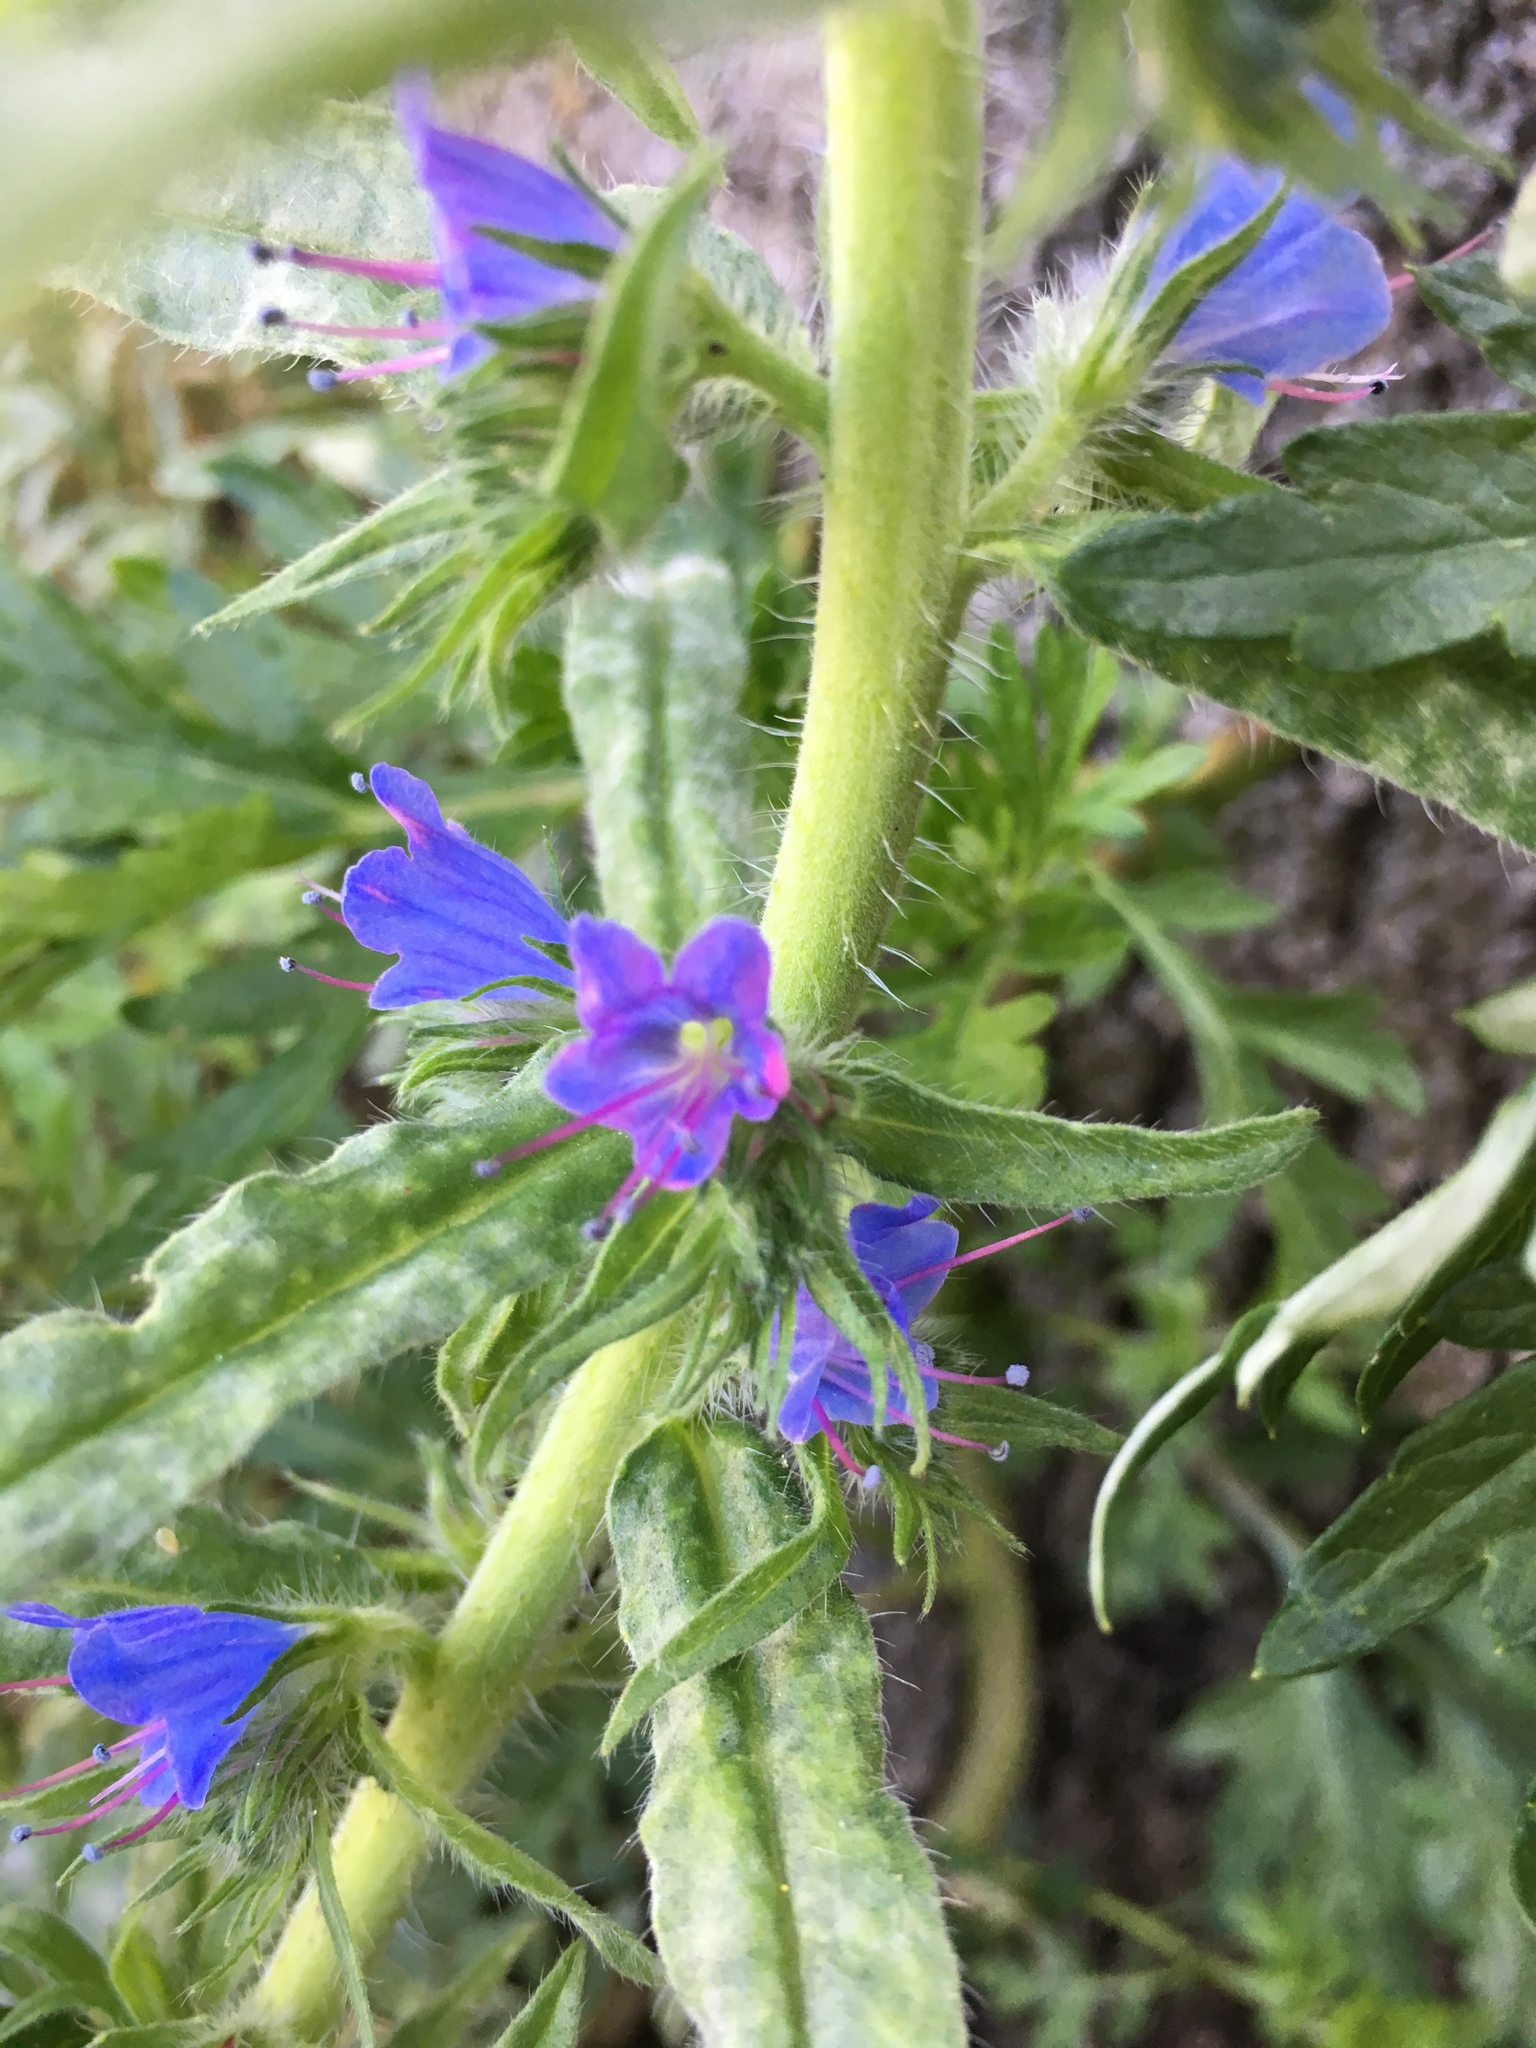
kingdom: Plantae
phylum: Tracheophyta
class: Magnoliopsida
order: Boraginales
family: Boraginaceae
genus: Echium
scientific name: Echium vulgare
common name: Common viper's bugloss
